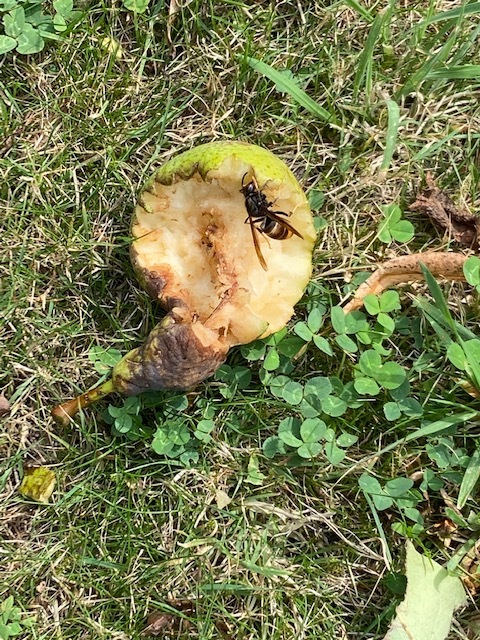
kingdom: Animalia
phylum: Arthropoda
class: Insecta
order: Hymenoptera
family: Vespidae
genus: Vespa
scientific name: Vespa velutina
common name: Asian hornet
